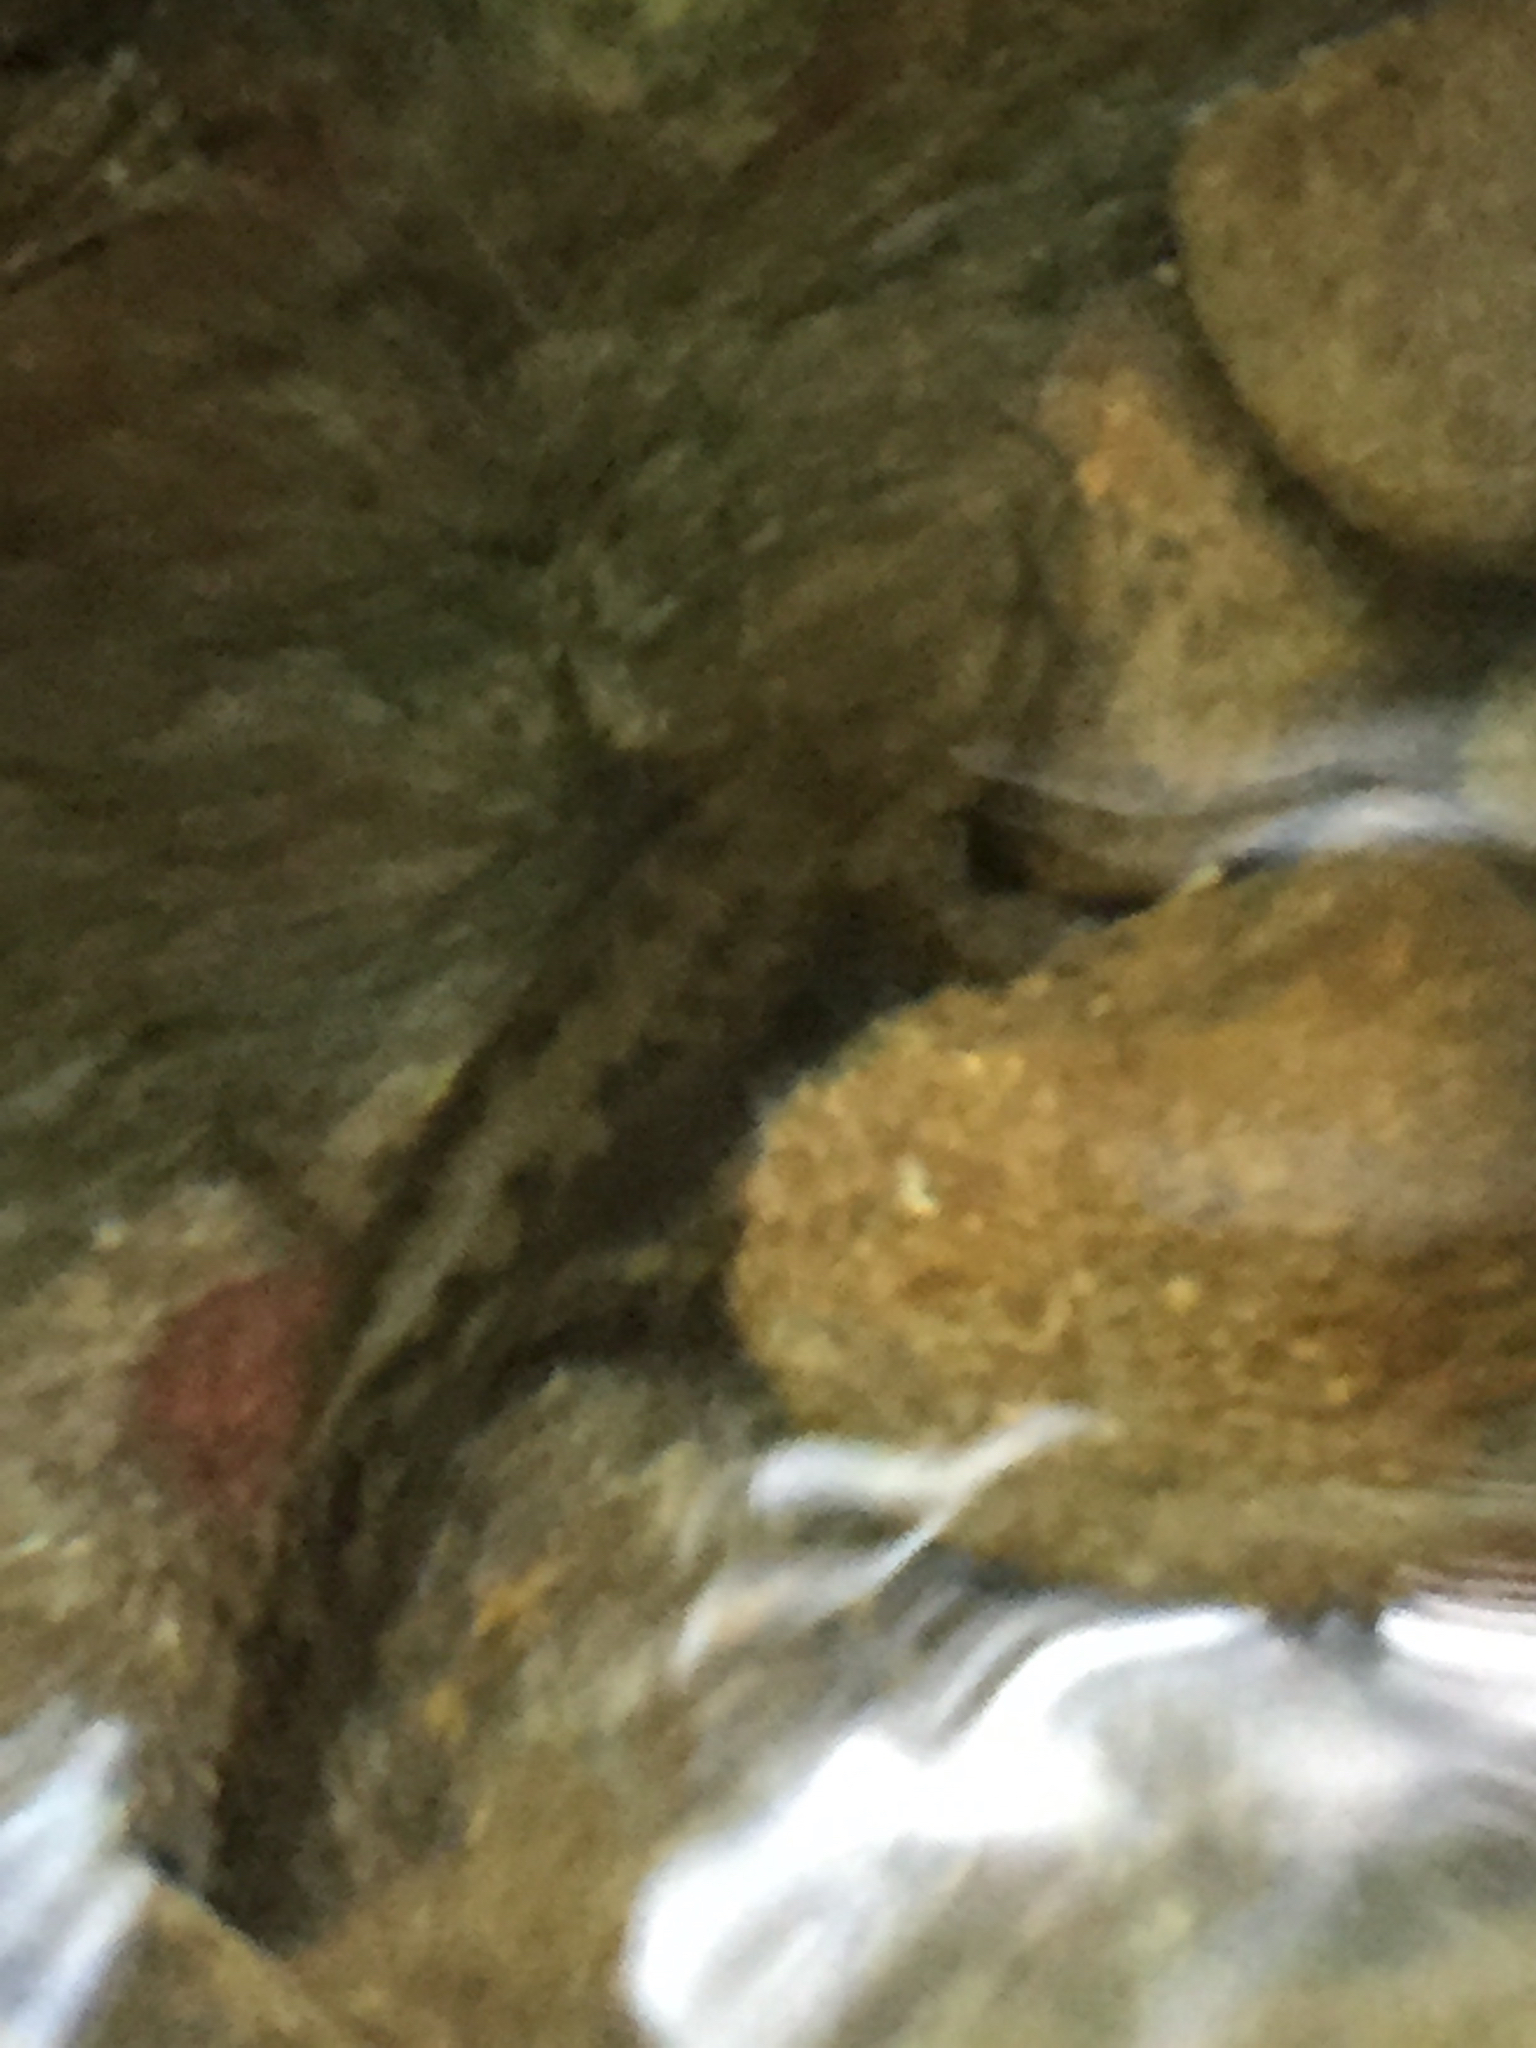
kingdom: Animalia
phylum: Chordata
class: Amphibia
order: Caudata
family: Ambystomatidae
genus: Dicamptodon
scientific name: Dicamptodon ensatus
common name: California giant salamander
